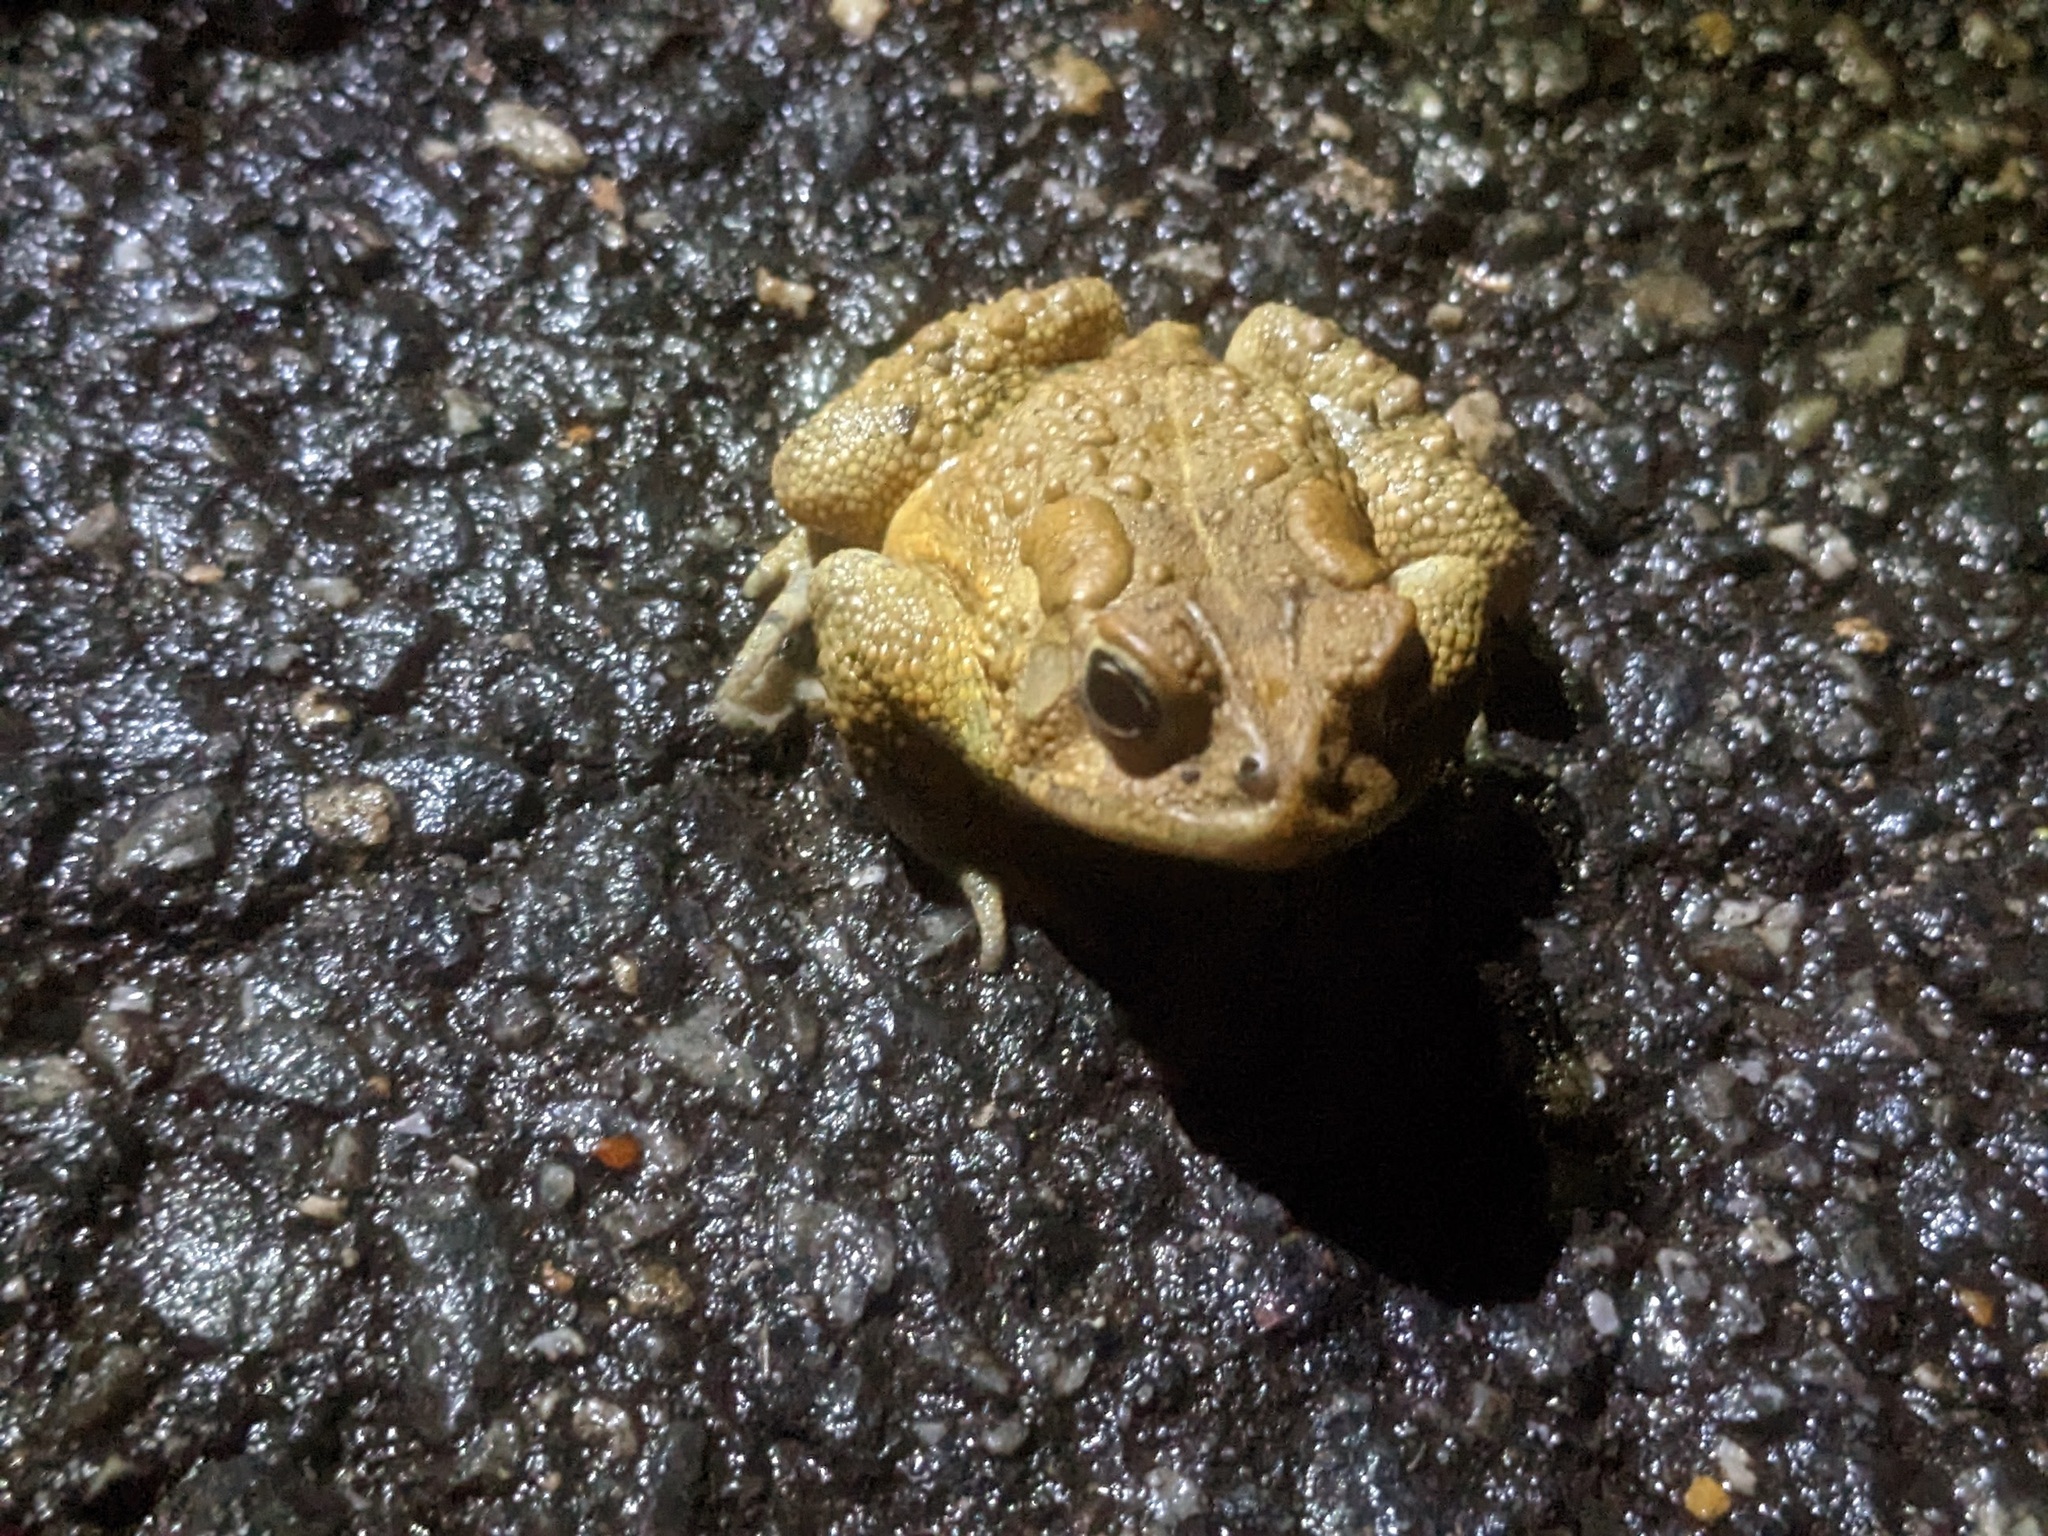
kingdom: Animalia
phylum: Chordata
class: Amphibia
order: Anura
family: Bufonidae
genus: Anaxyrus
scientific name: Anaxyrus americanus
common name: American toad
